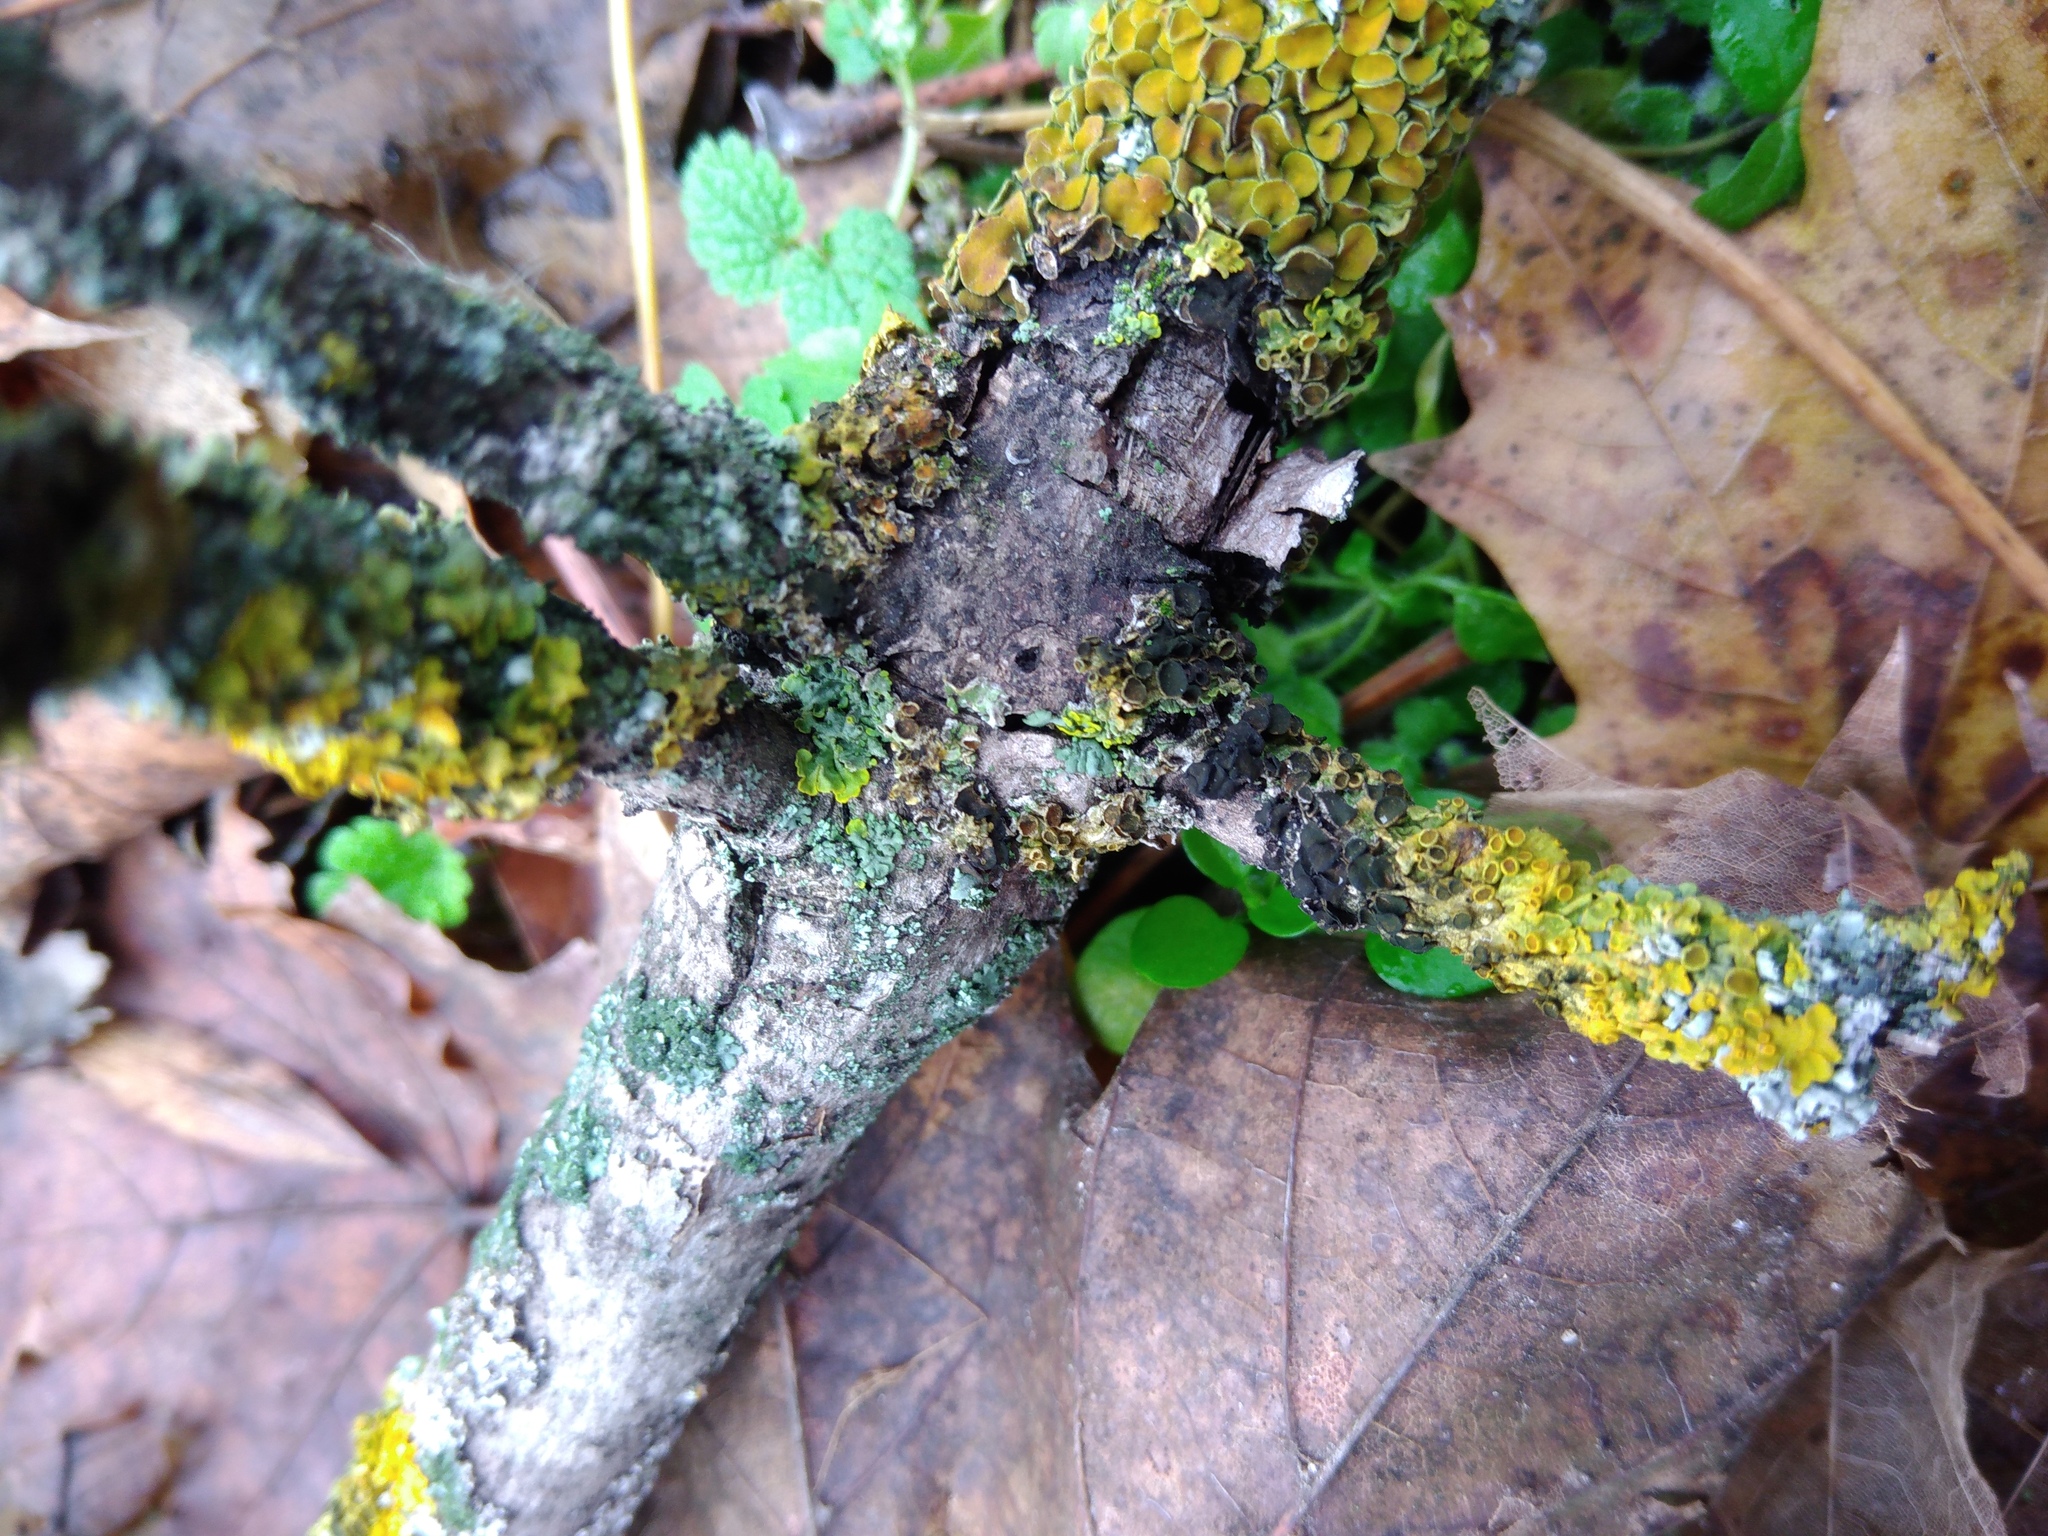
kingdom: Fungi
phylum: Ascomycota
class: Dothideomycetes
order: Mycosphaerellales
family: Teratosphaeriaceae
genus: Xanthoriicola
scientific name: Xanthoriicola physciae
